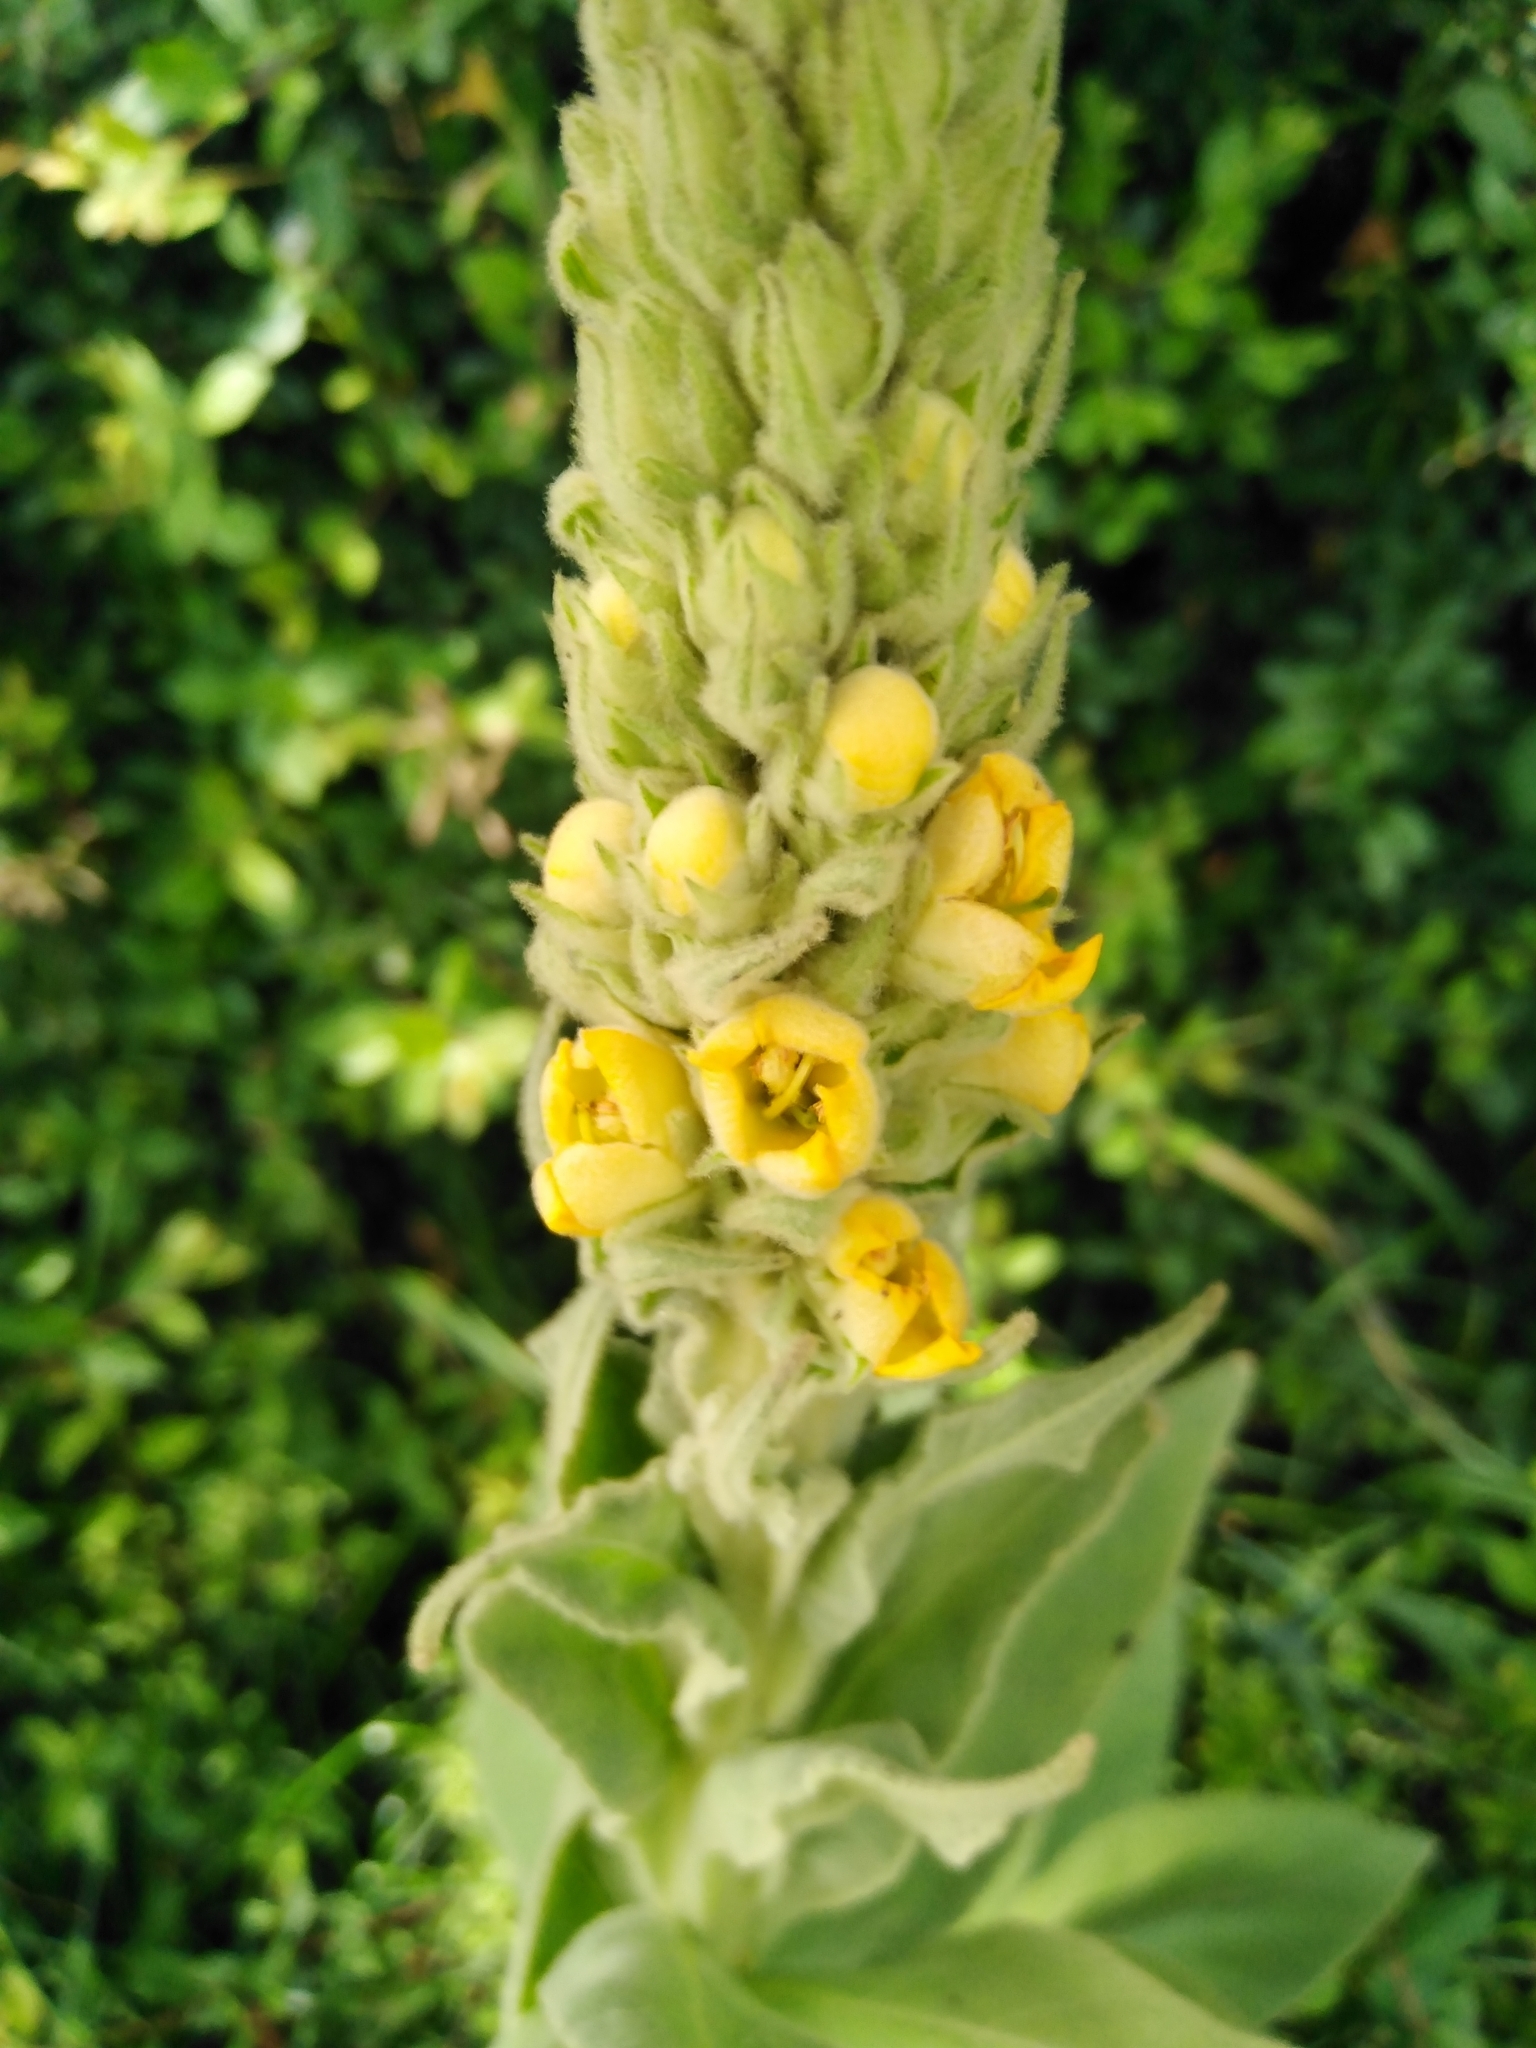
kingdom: Plantae
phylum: Tracheophyta
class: Magnoliopsida
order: Lamiales
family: Scrophulariaceae
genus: Verbascum
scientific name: Verbascum thapsus
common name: Common mullein
